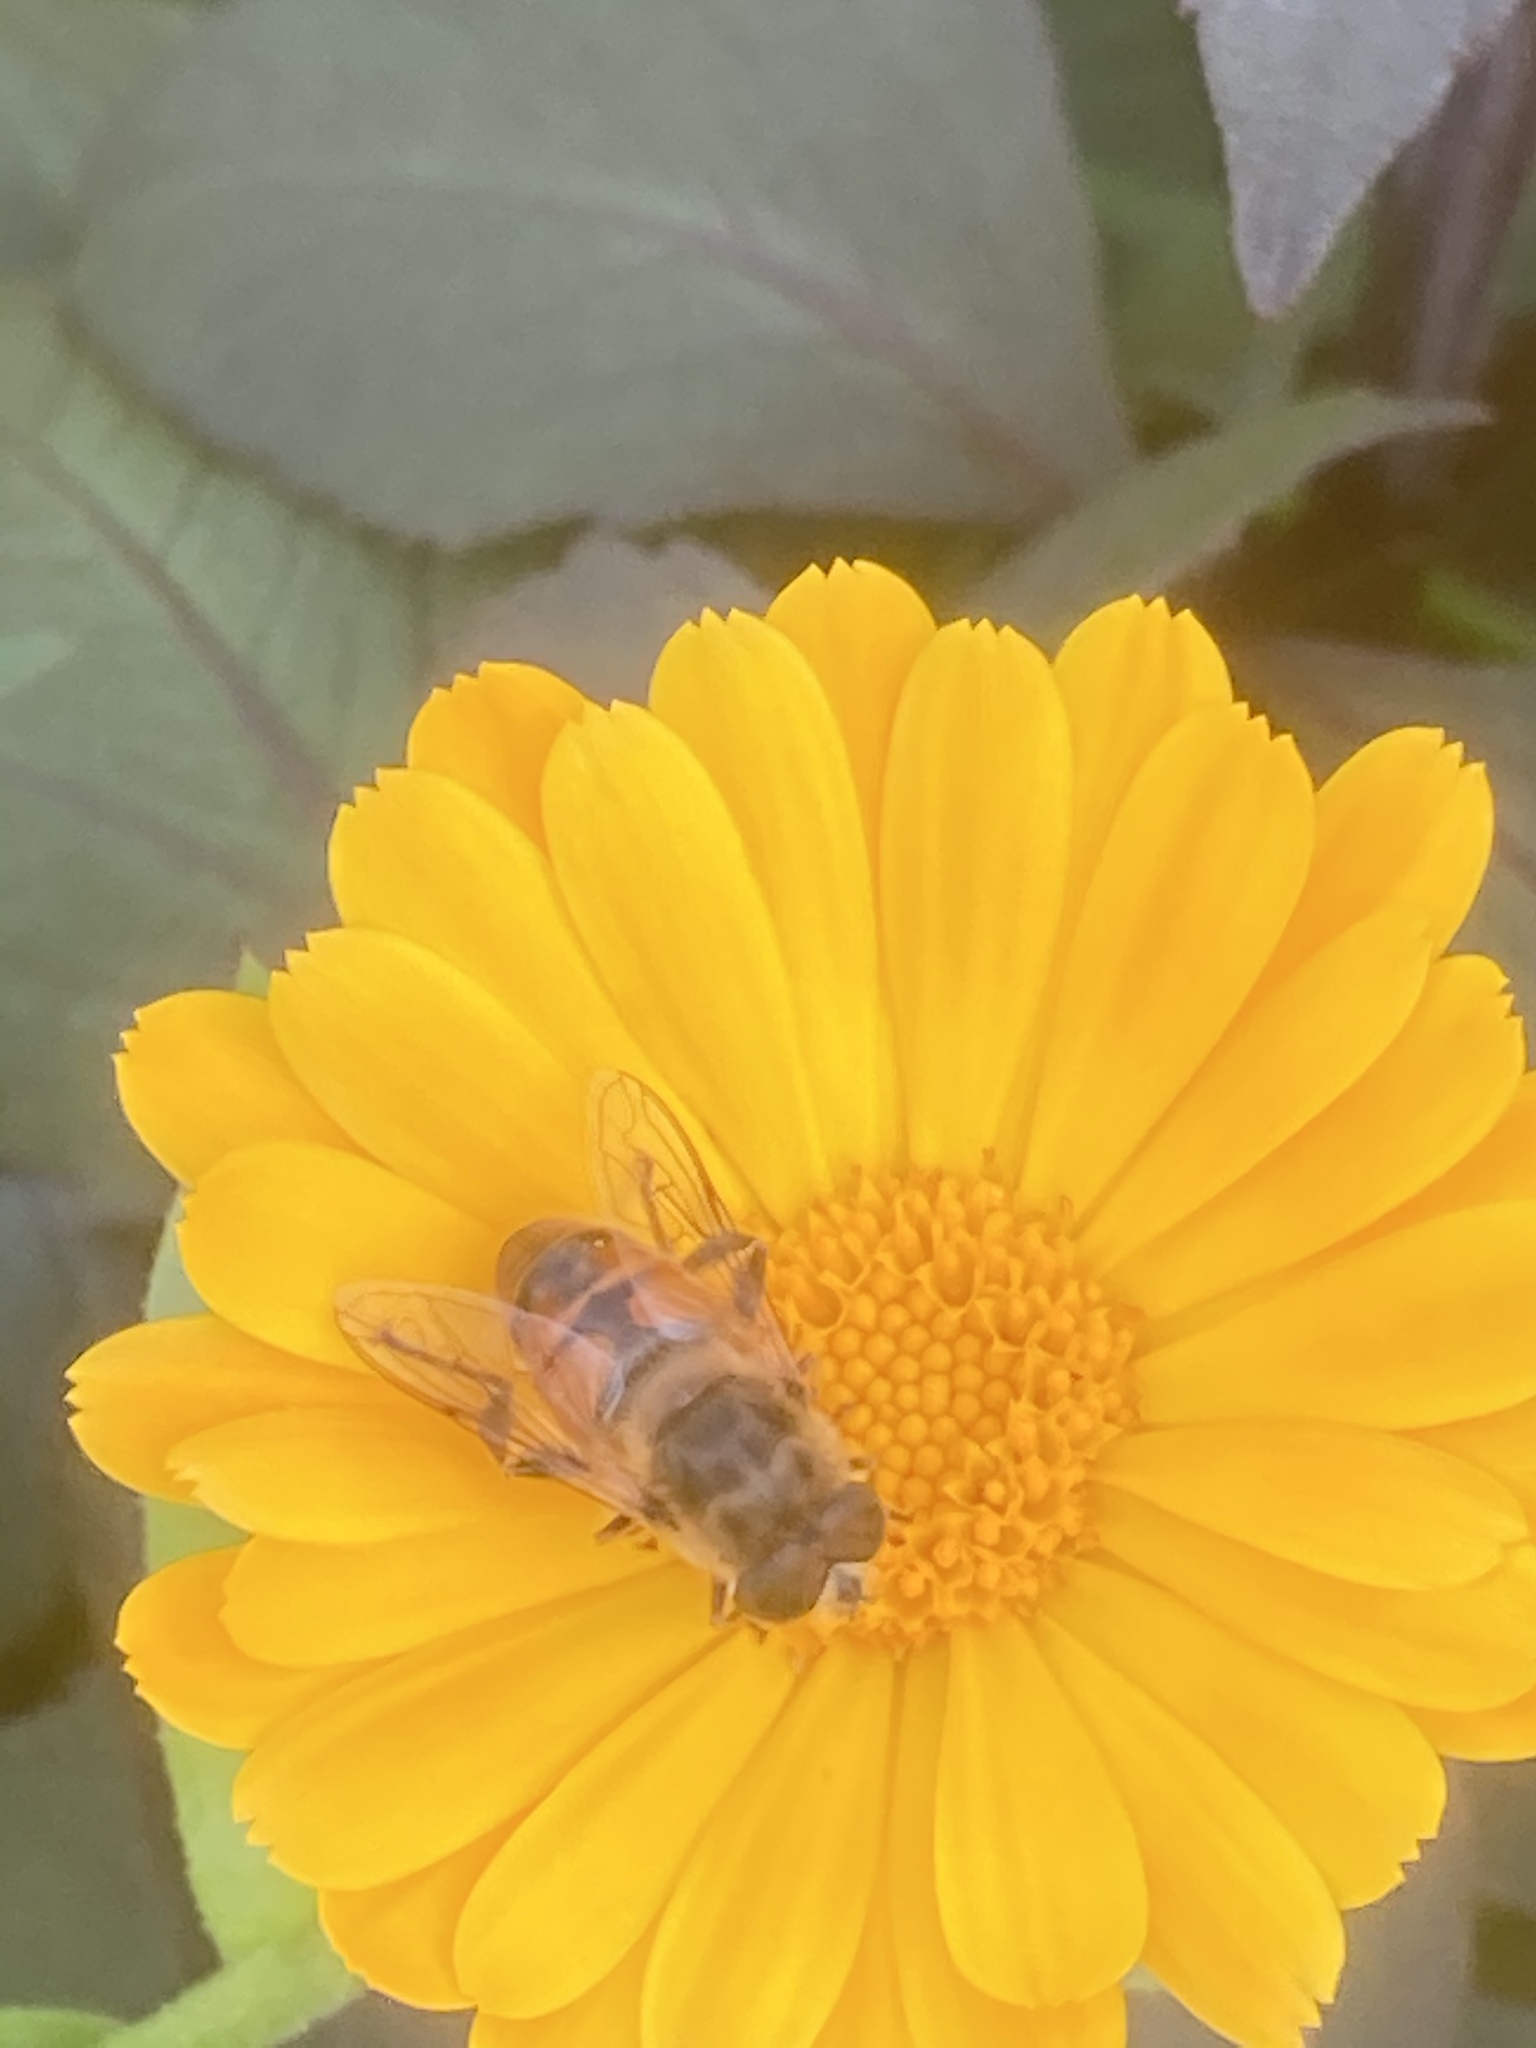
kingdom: Animalia
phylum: Arthropoda
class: Insecta
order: Diptera
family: Syrphidae
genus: Eristalis
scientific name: Eristalis tenax
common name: Drone fly
